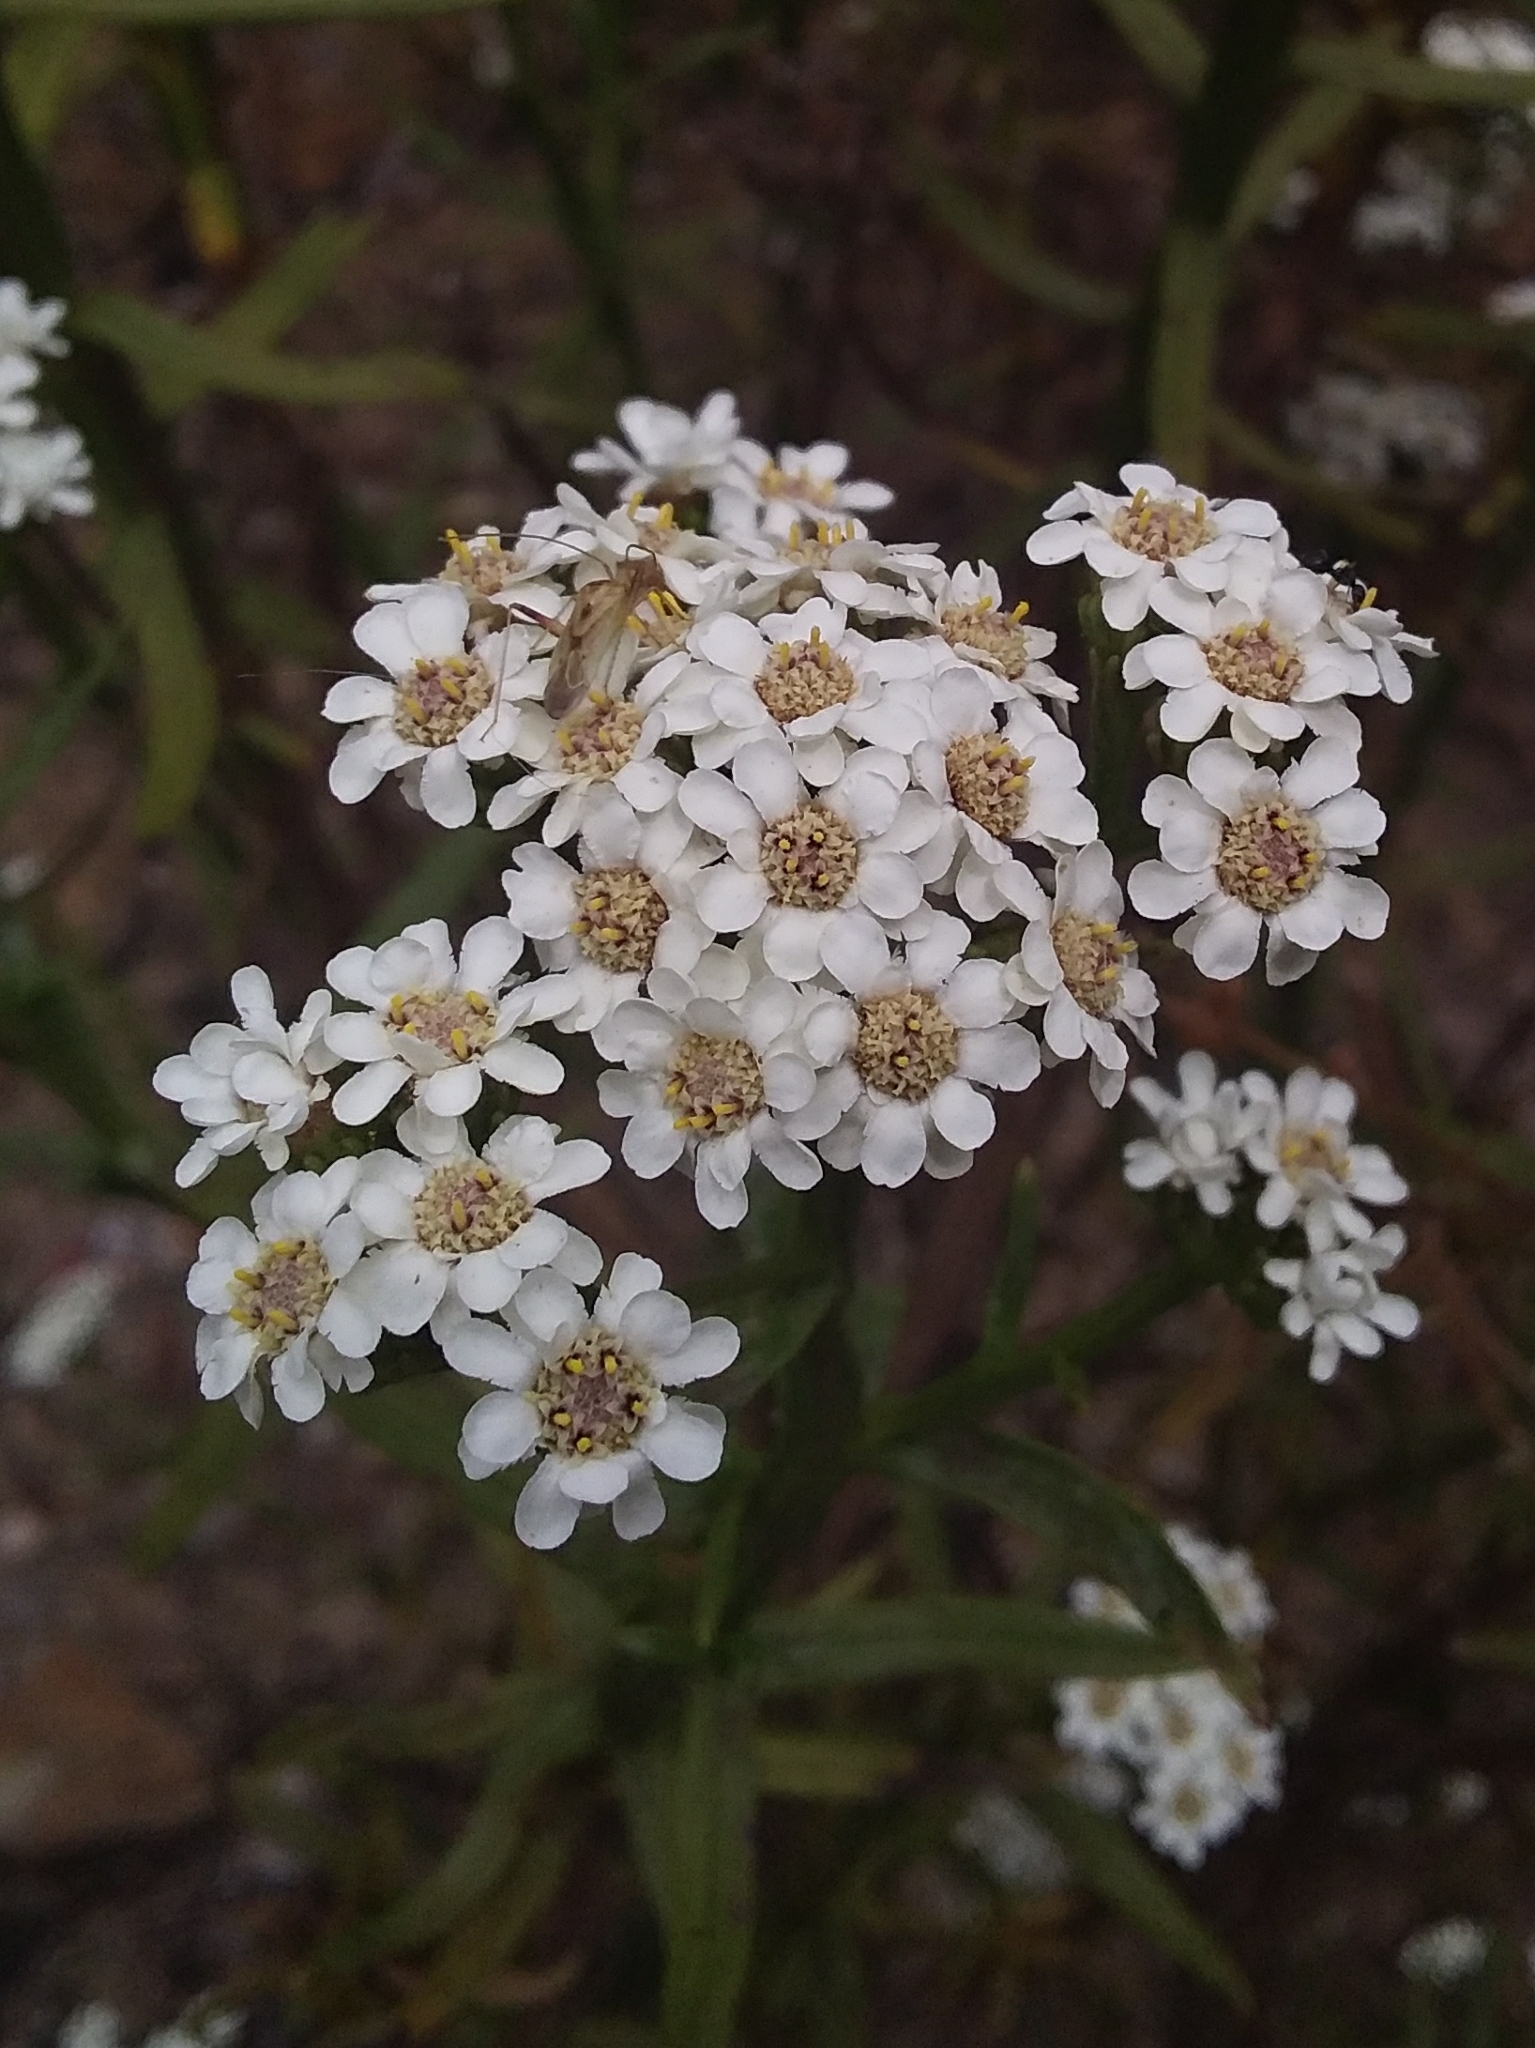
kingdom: Plantae
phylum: Tracheophyta
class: Magnoliopsida
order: Asterales
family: Asteraceae
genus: Ixodia
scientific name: Ixodia achillaeoides
